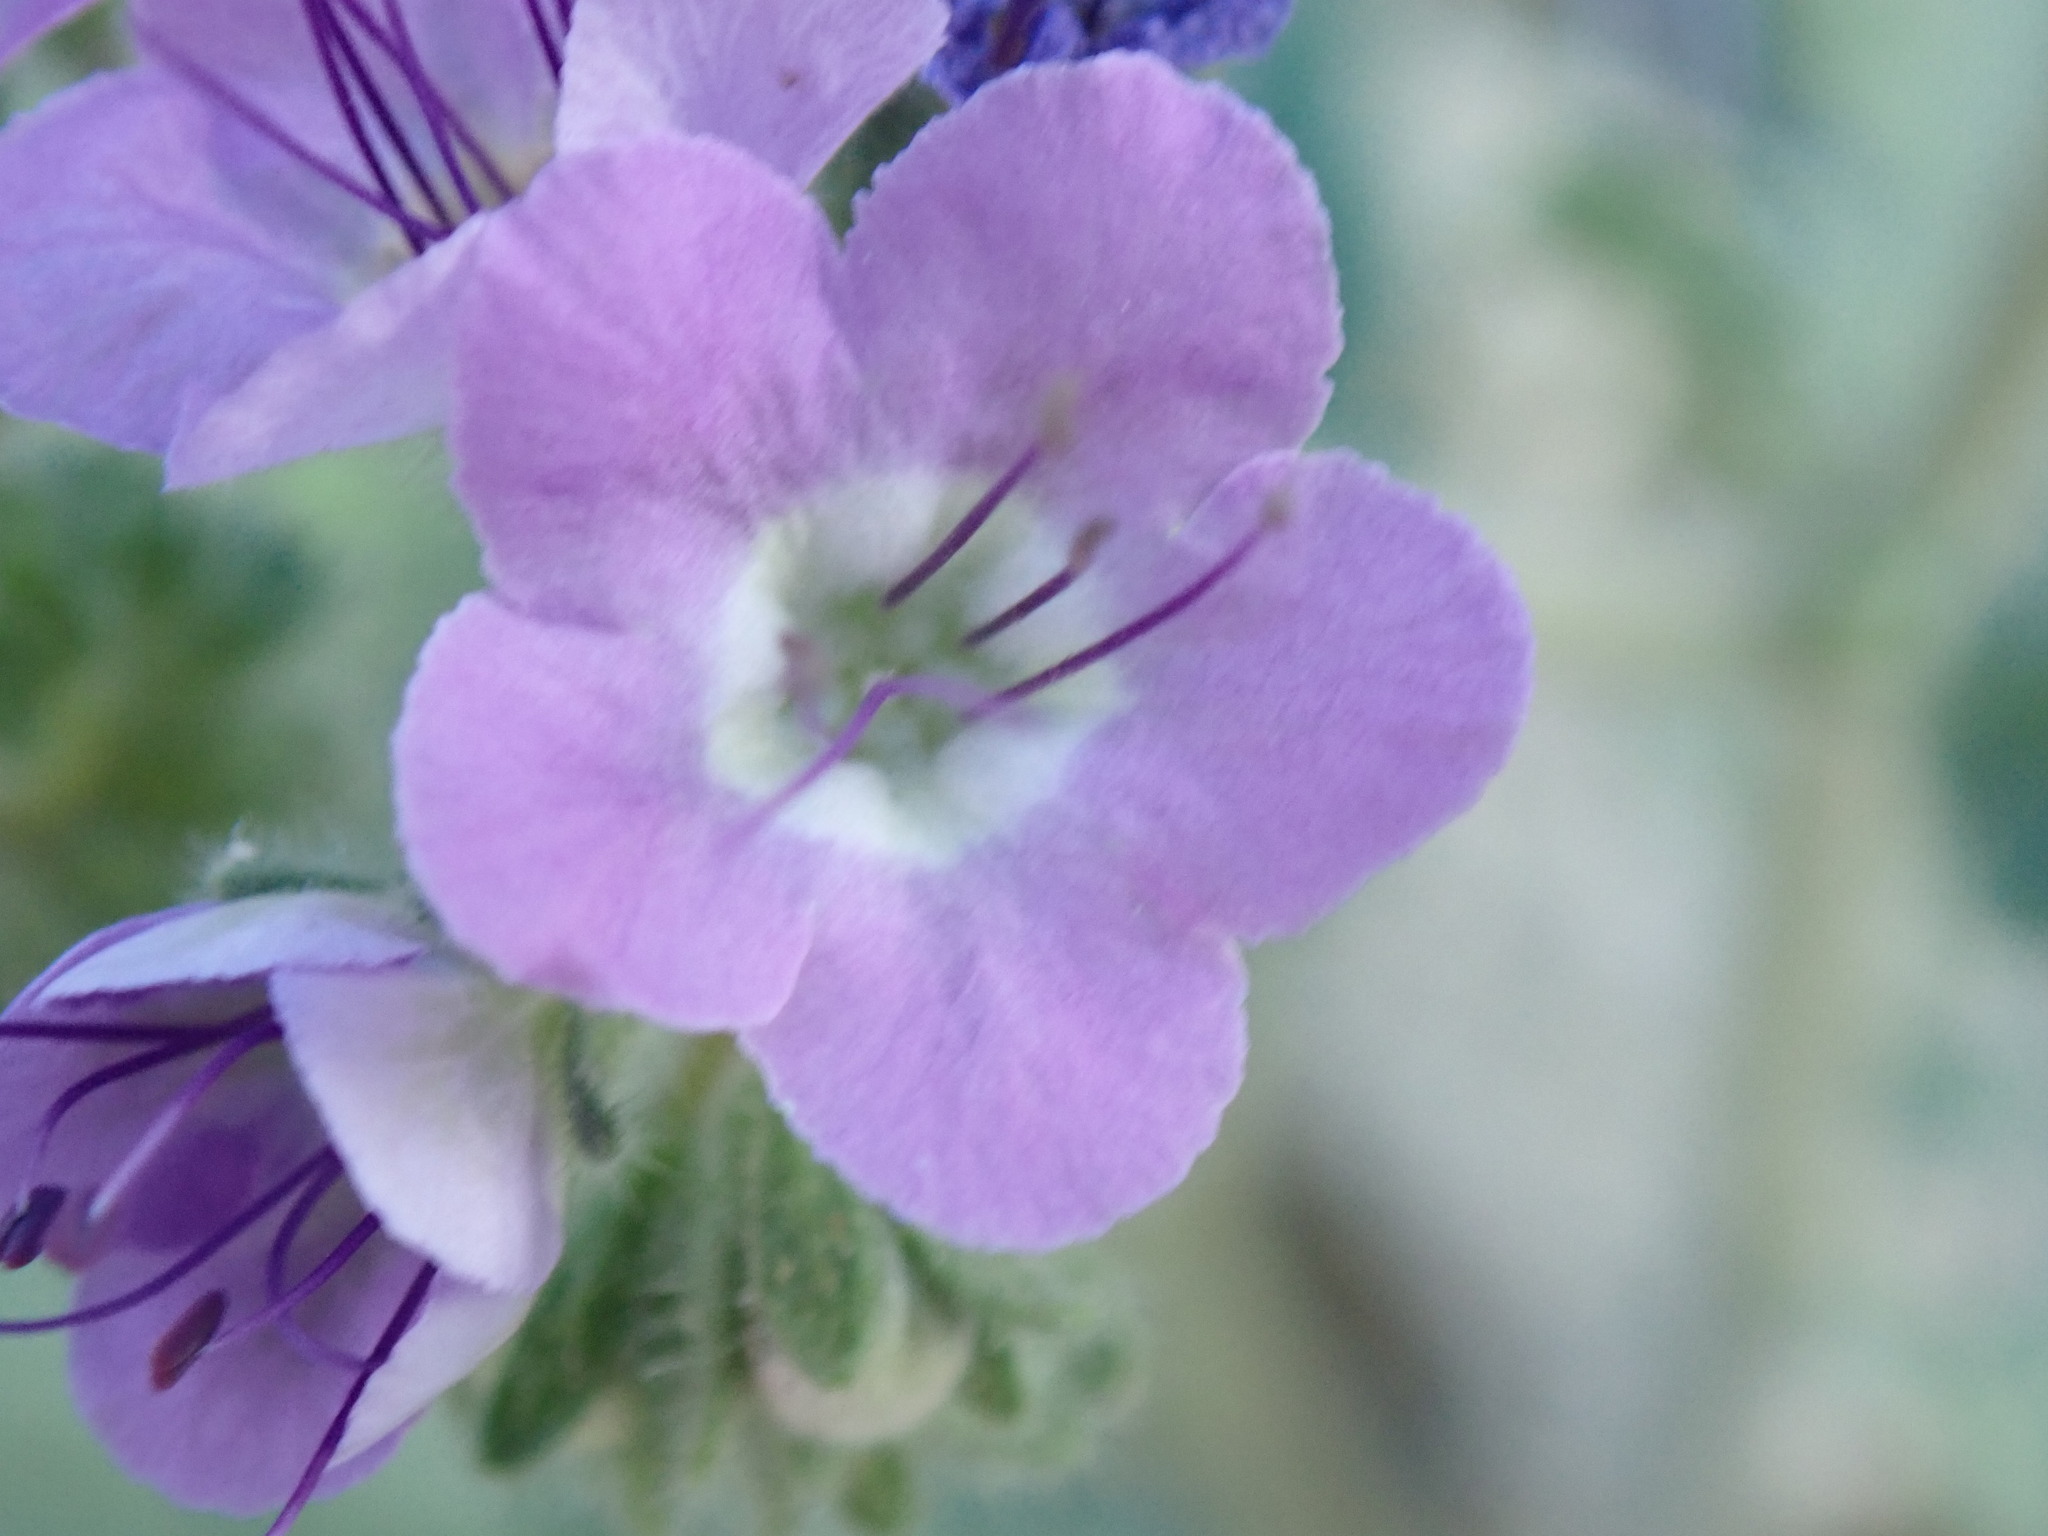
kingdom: Plantae
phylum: Tracheophyta
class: Magnoliopsida
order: Boraginales
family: Hydrophyllaceae
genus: Phacelia
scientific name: Phacelia crenulata
